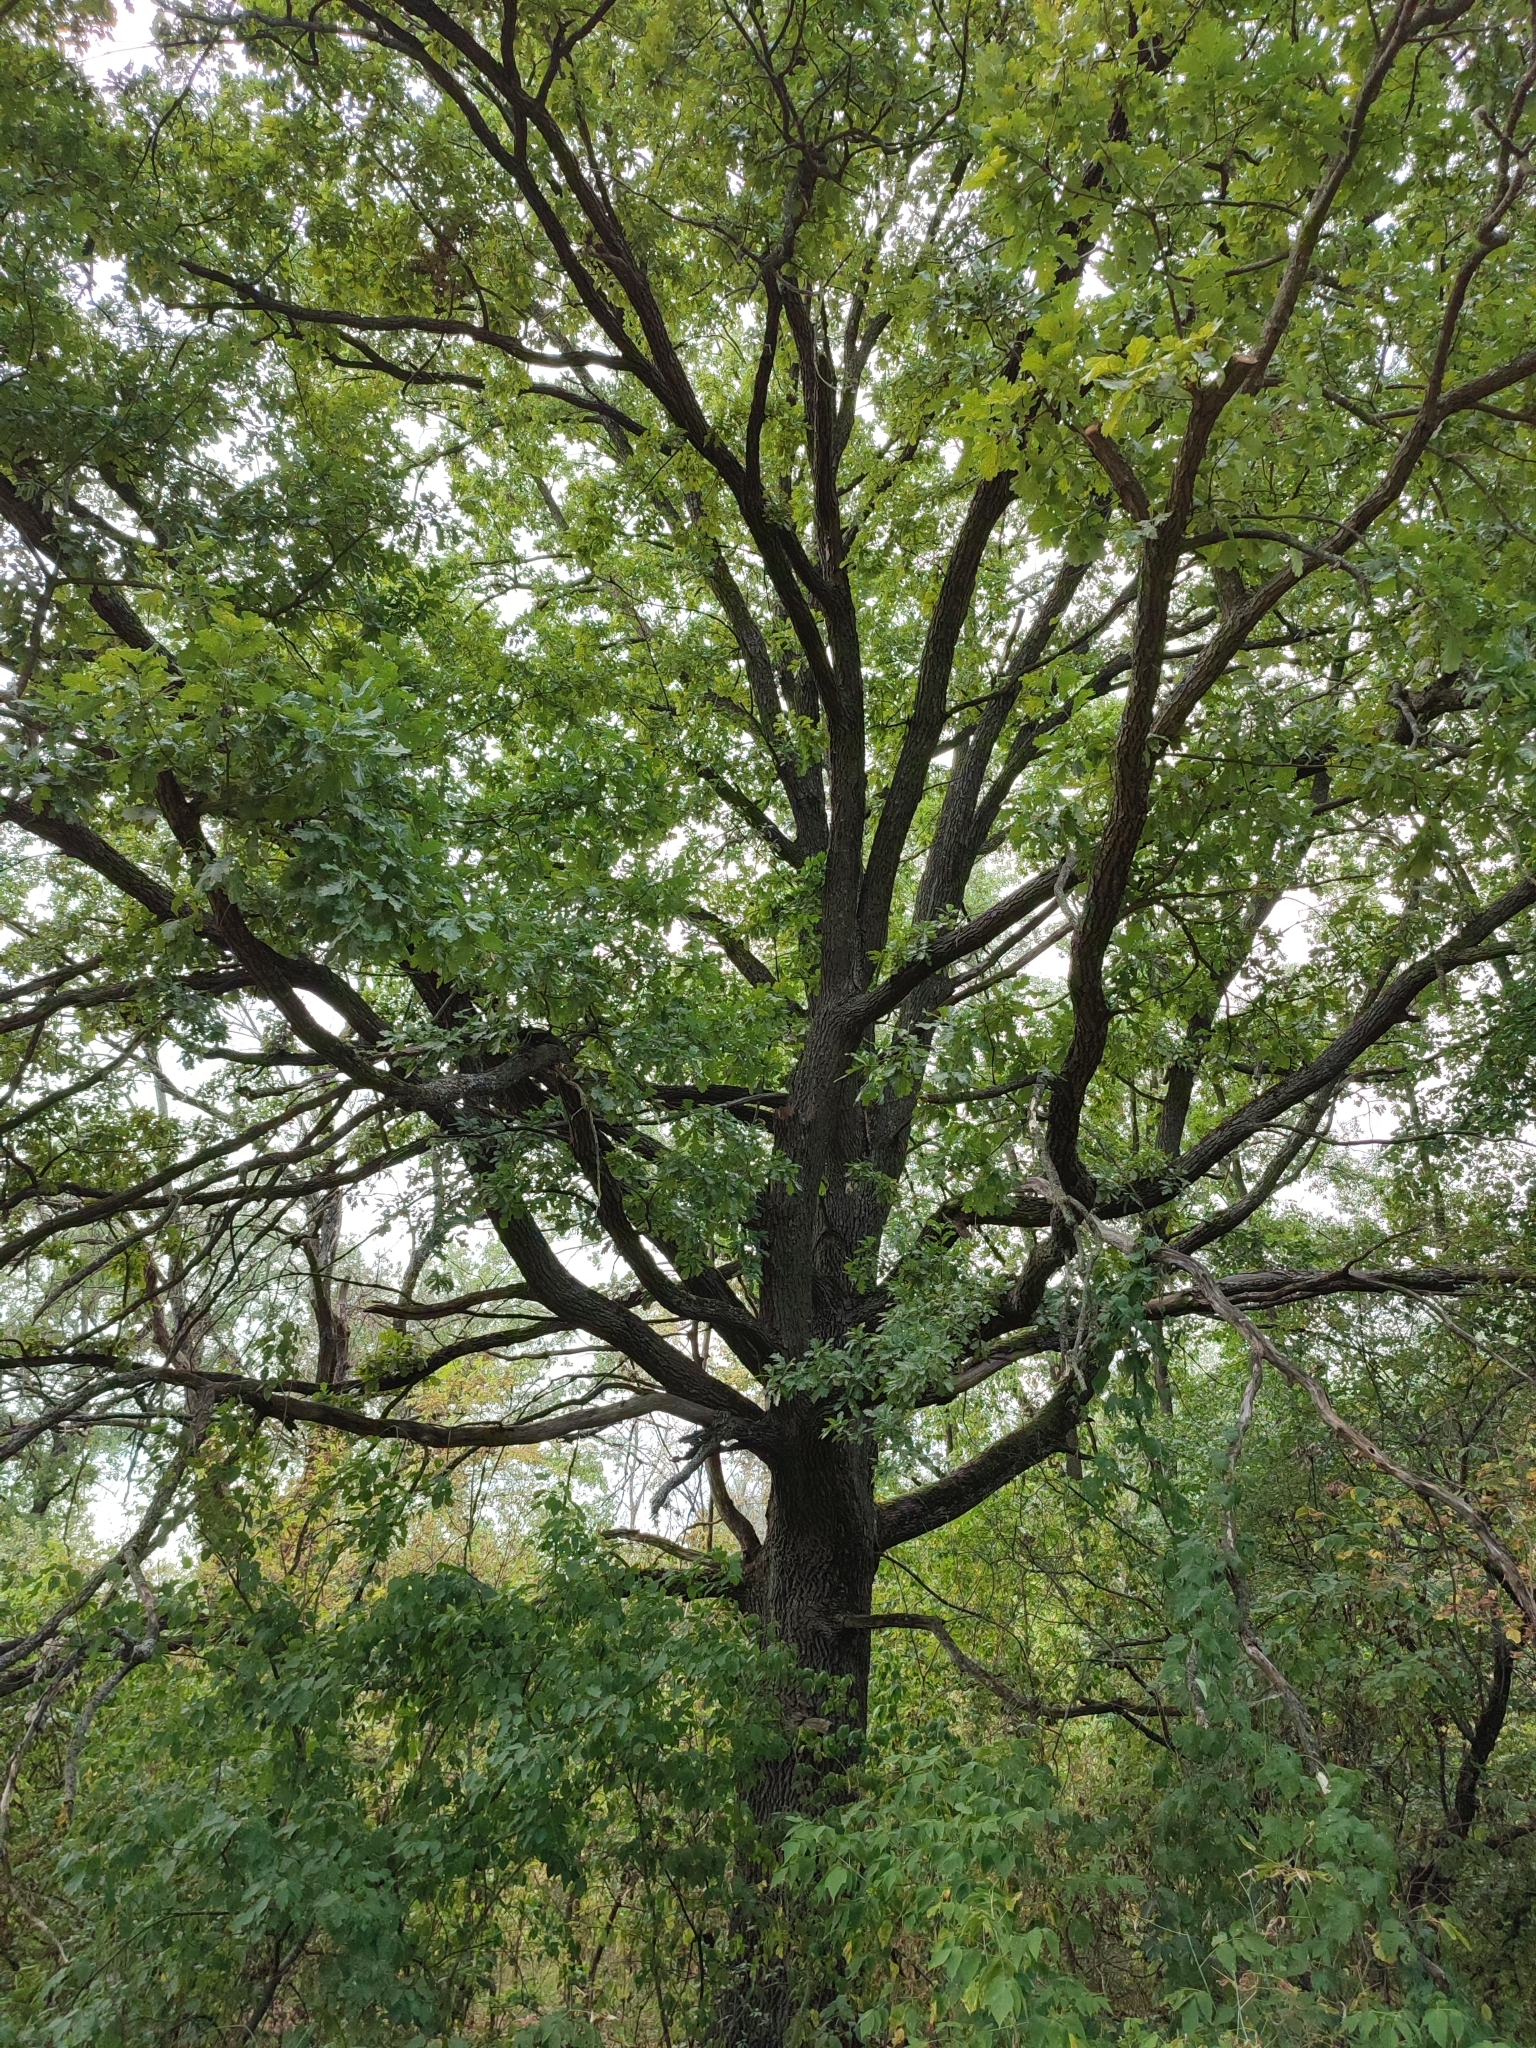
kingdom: Plantae
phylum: Tracheophyta
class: Magnoliopsida
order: Fagales
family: Fagaceae
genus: Quercus
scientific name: Quercus robur
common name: Pedunculate oak
